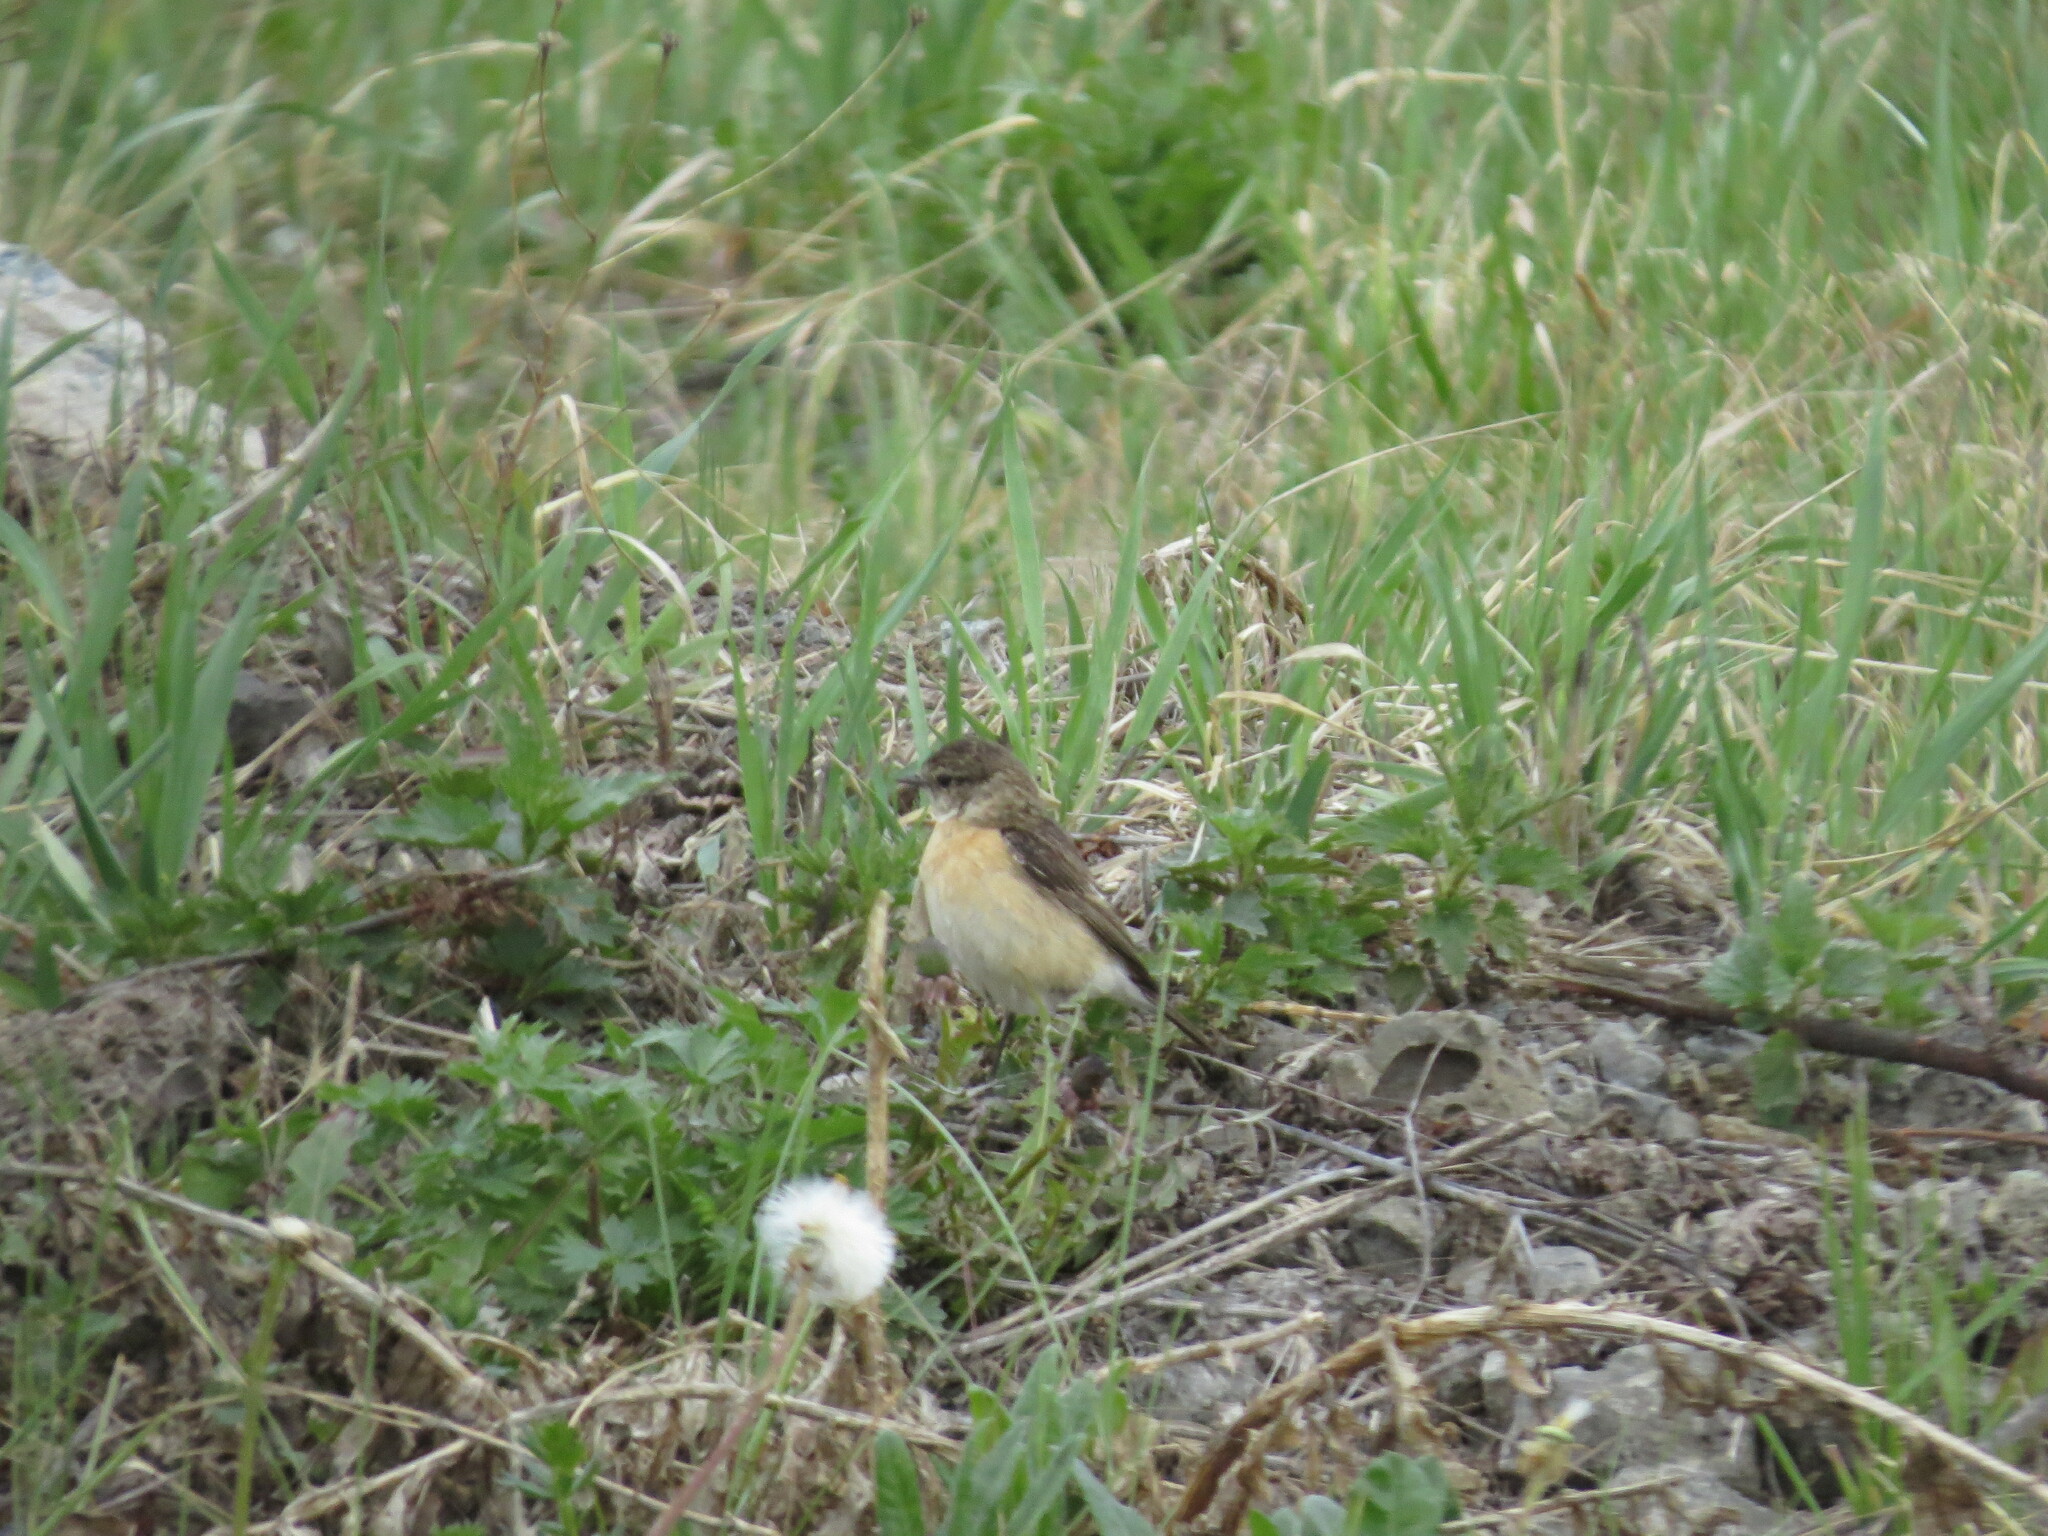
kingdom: Animalia
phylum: Chordata
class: Aves
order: Passeriformes
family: Muscicapidae
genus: Saxicola
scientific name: Saxicola maurus
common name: Siberian stonechat
